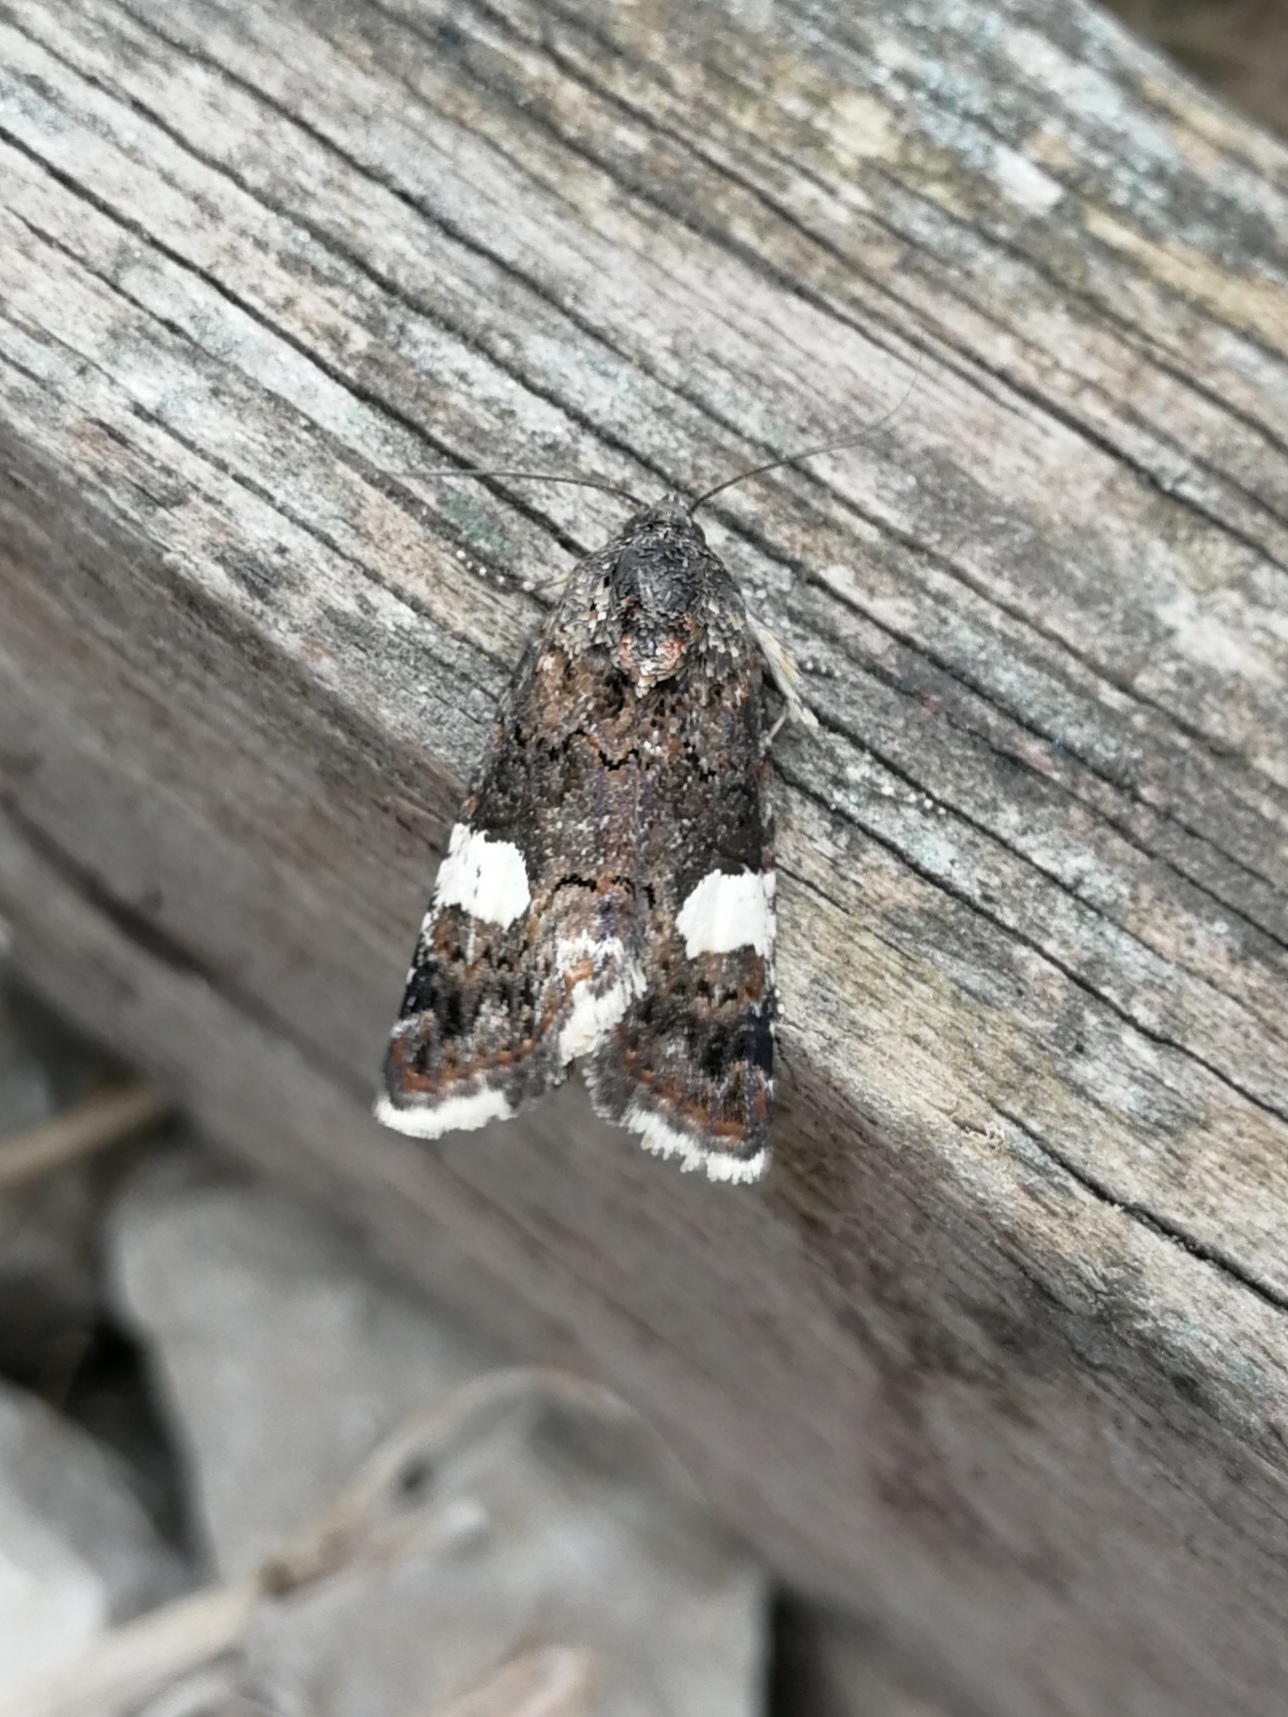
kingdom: Animalia
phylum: Arthropoda
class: Insecta
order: Lepidoptera
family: Erebidae
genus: Tyta
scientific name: Tyta luctuosa
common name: Four-spotted
